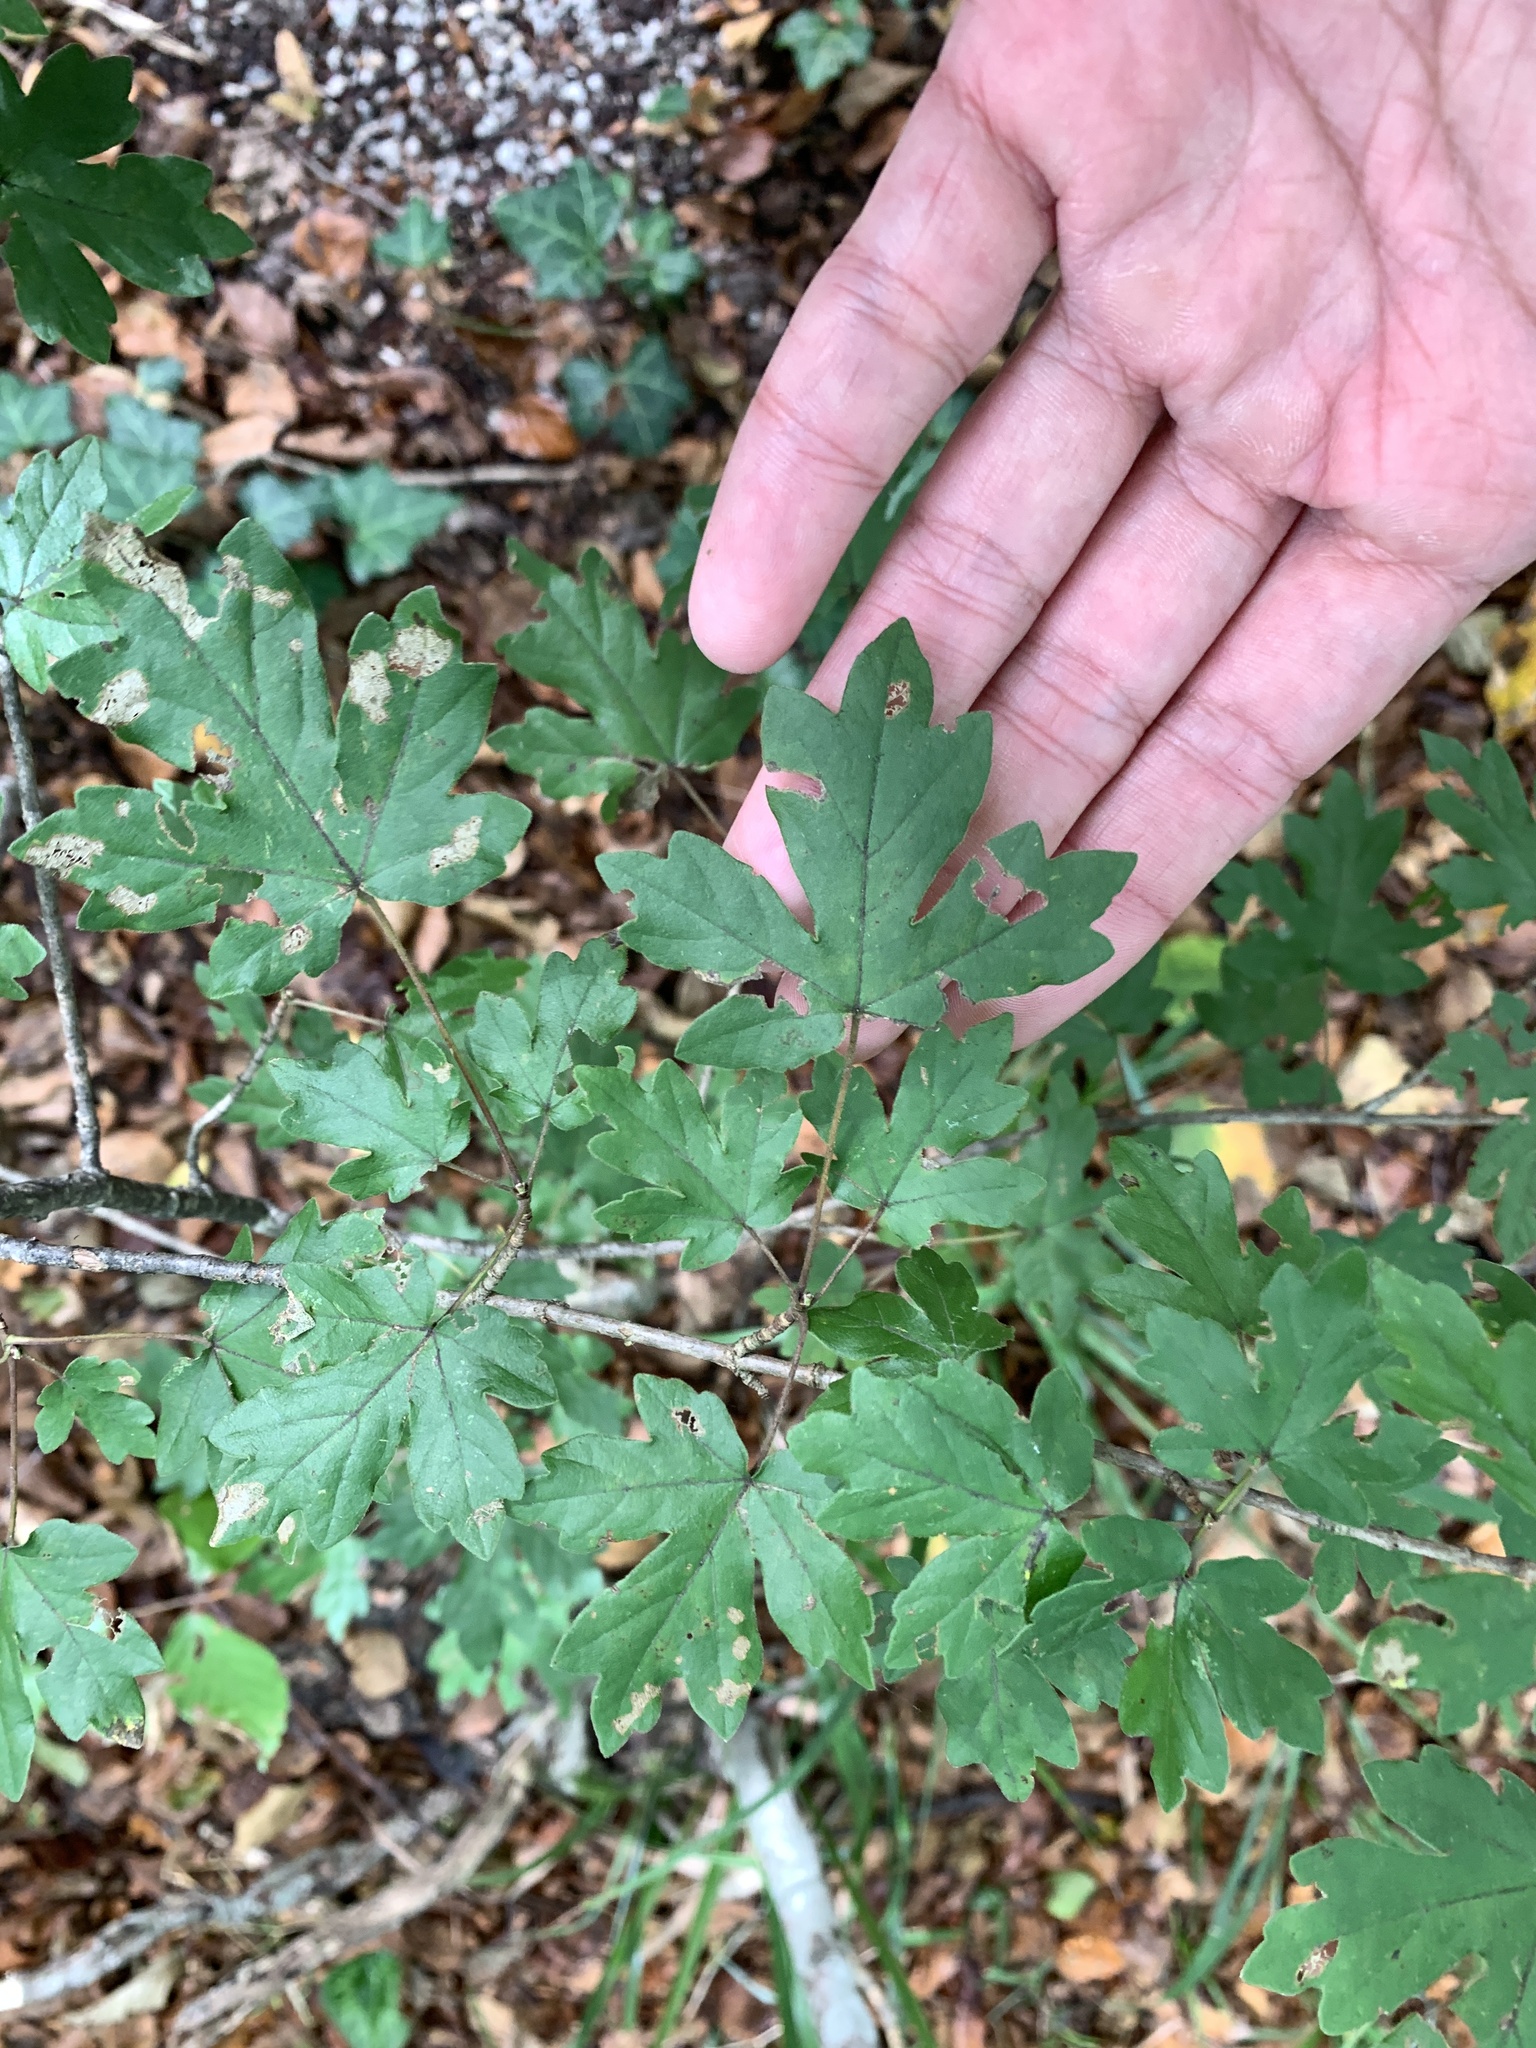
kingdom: Plantae
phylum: Tracheophyta
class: Magnoliopsida
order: Sapindales
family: Sapindaceae
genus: Acer
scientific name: Acer campestre
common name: Field maple
